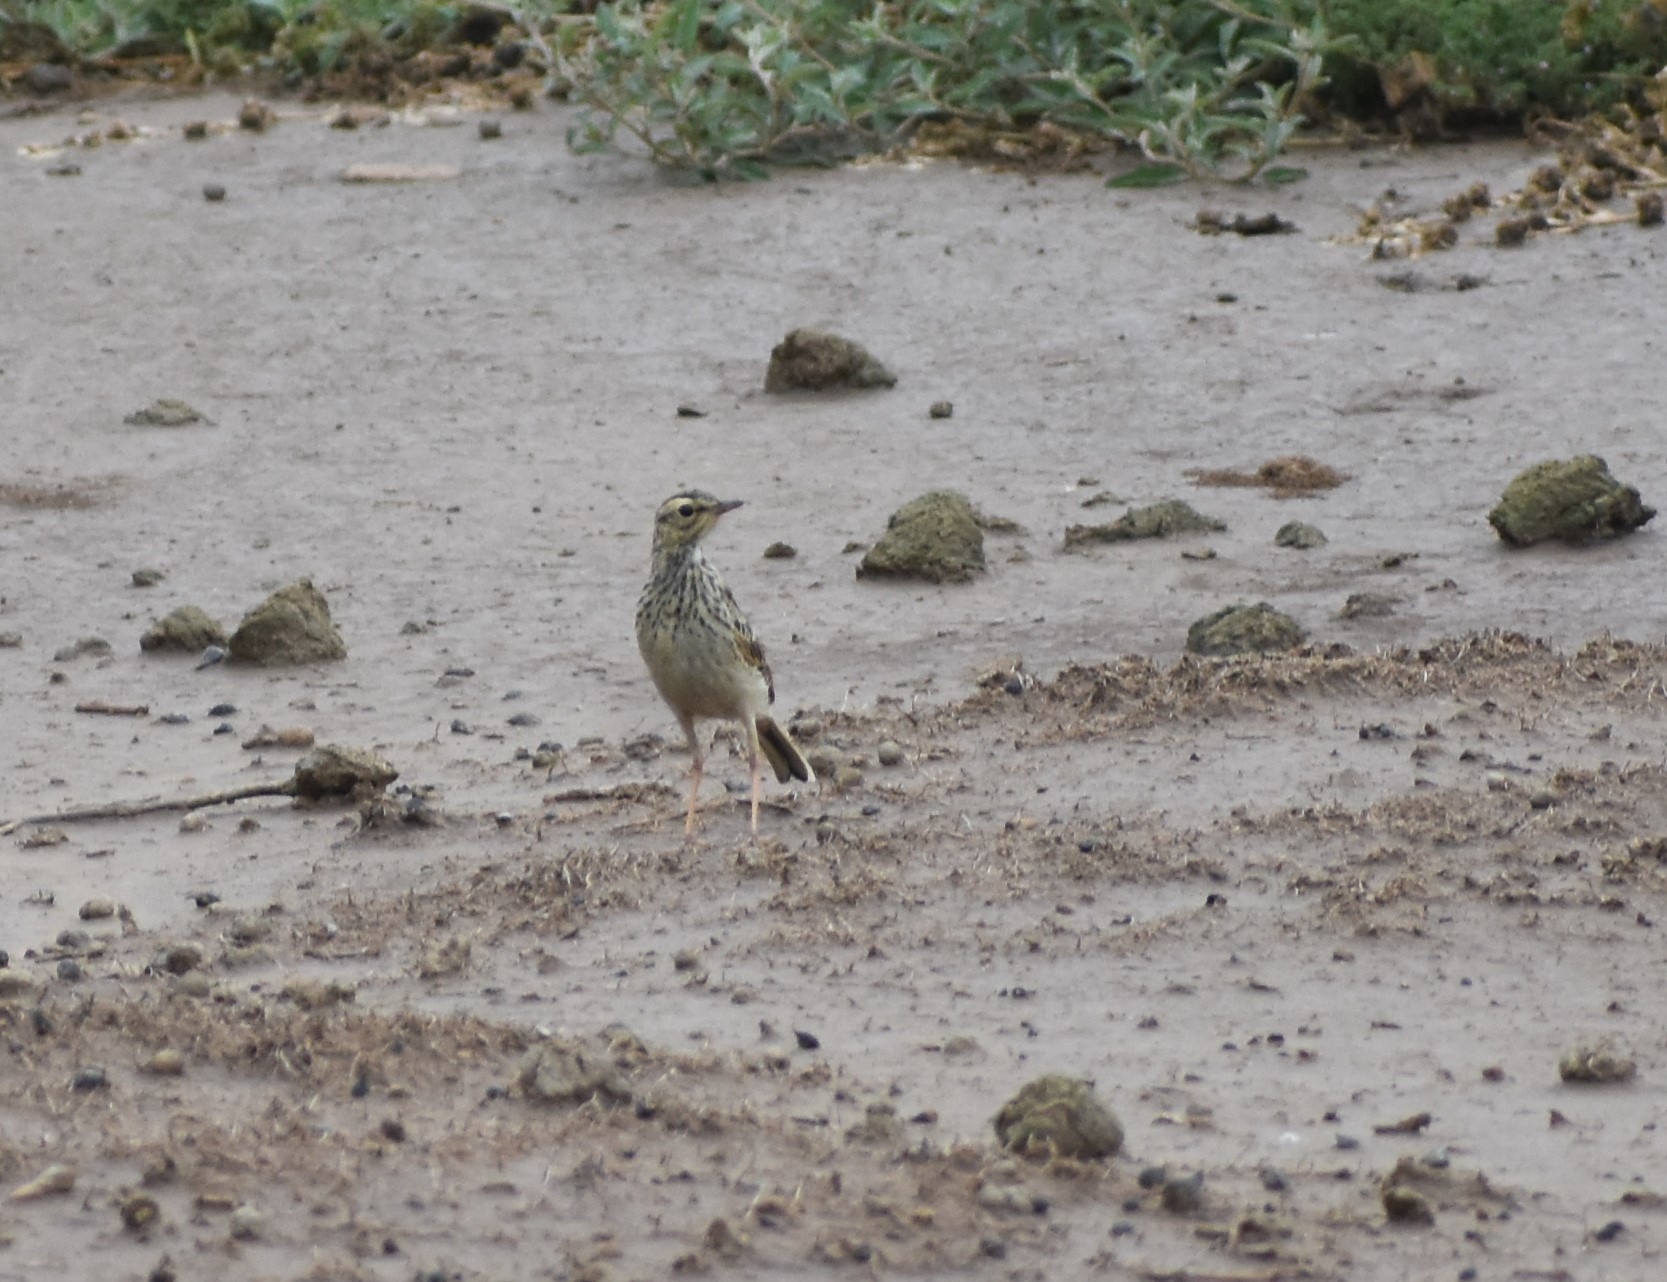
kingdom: Animalia
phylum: Chordata
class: Aves
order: Passeriformes
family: Motacillidae
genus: Anthus
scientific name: Anthus cinnamomeus
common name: African pipit
